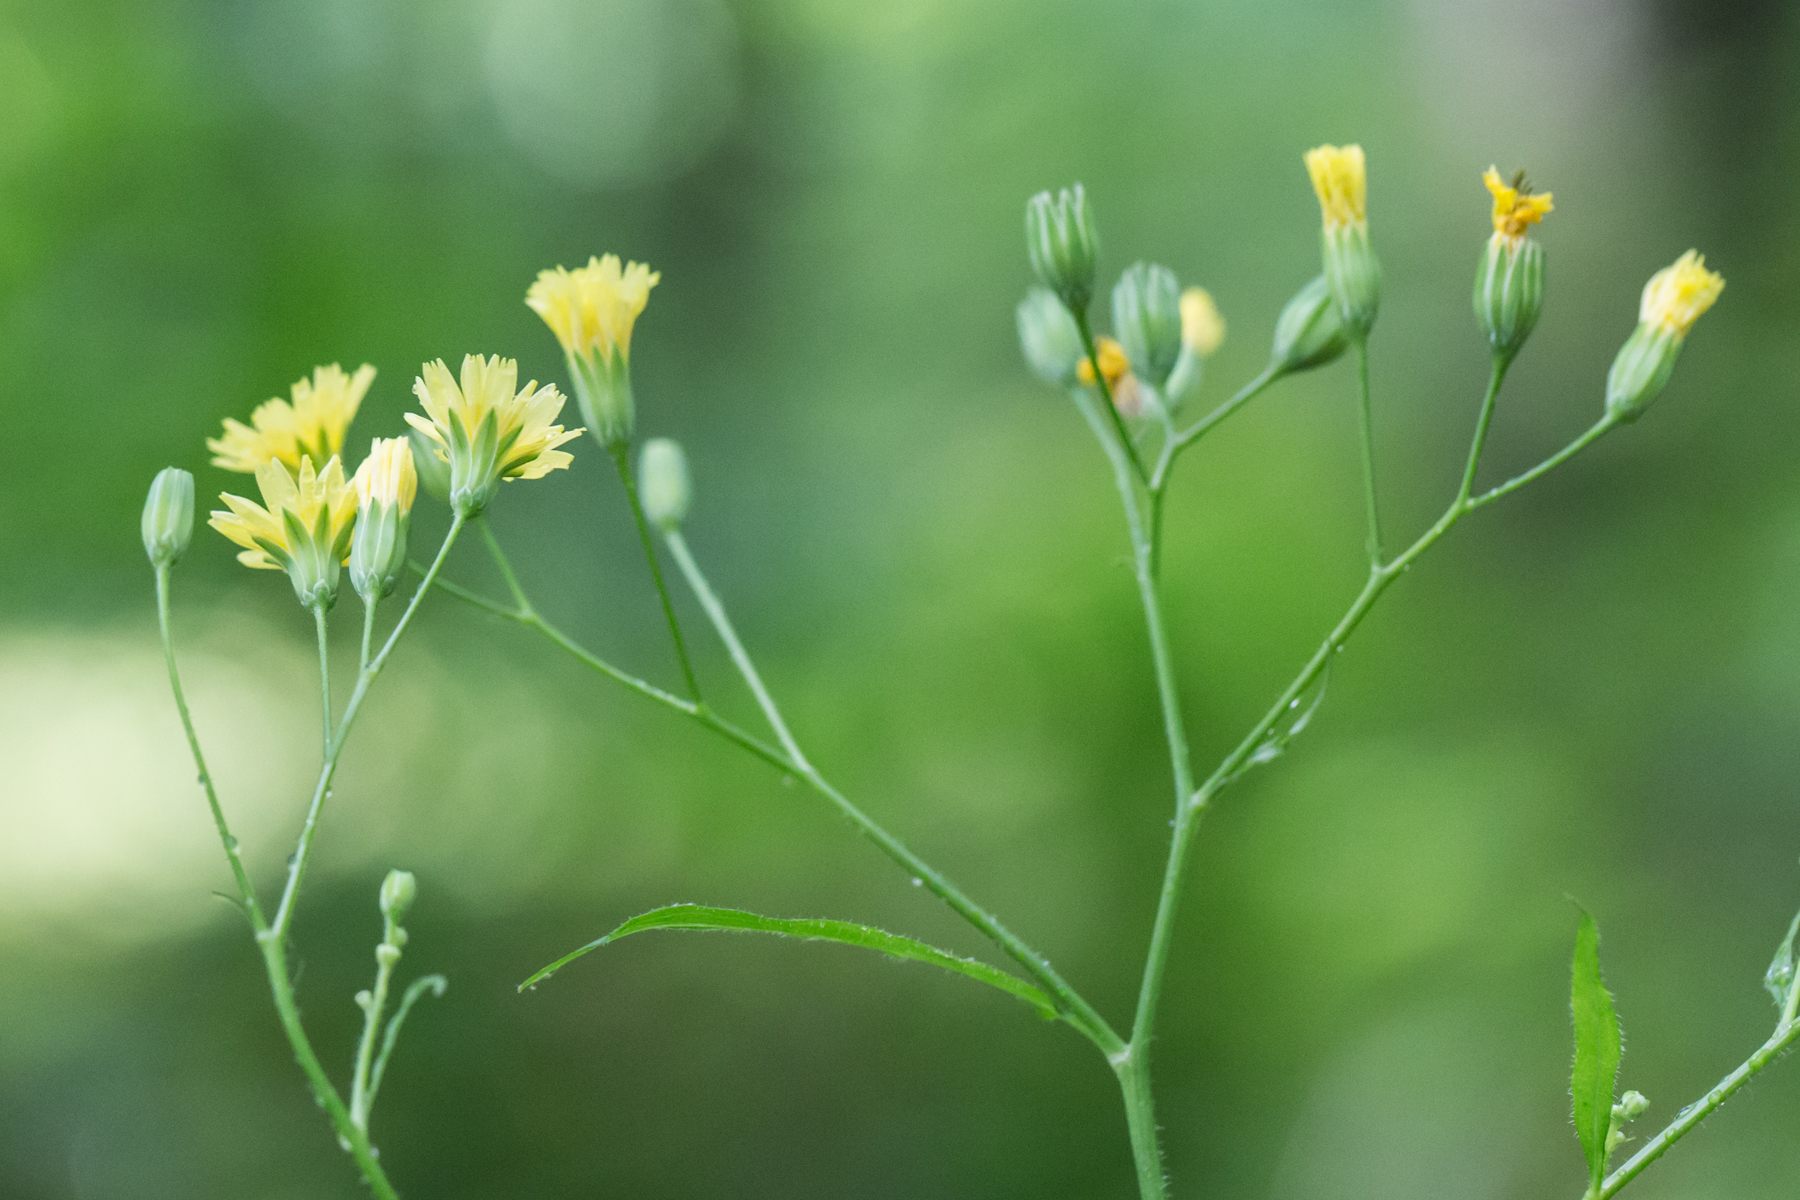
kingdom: Plantae
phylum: Tracheophyta
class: Magnoliopsida
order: Asterales
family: Asteraceae
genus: Lapsana
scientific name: Lapsana communis
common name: Nipplewort
